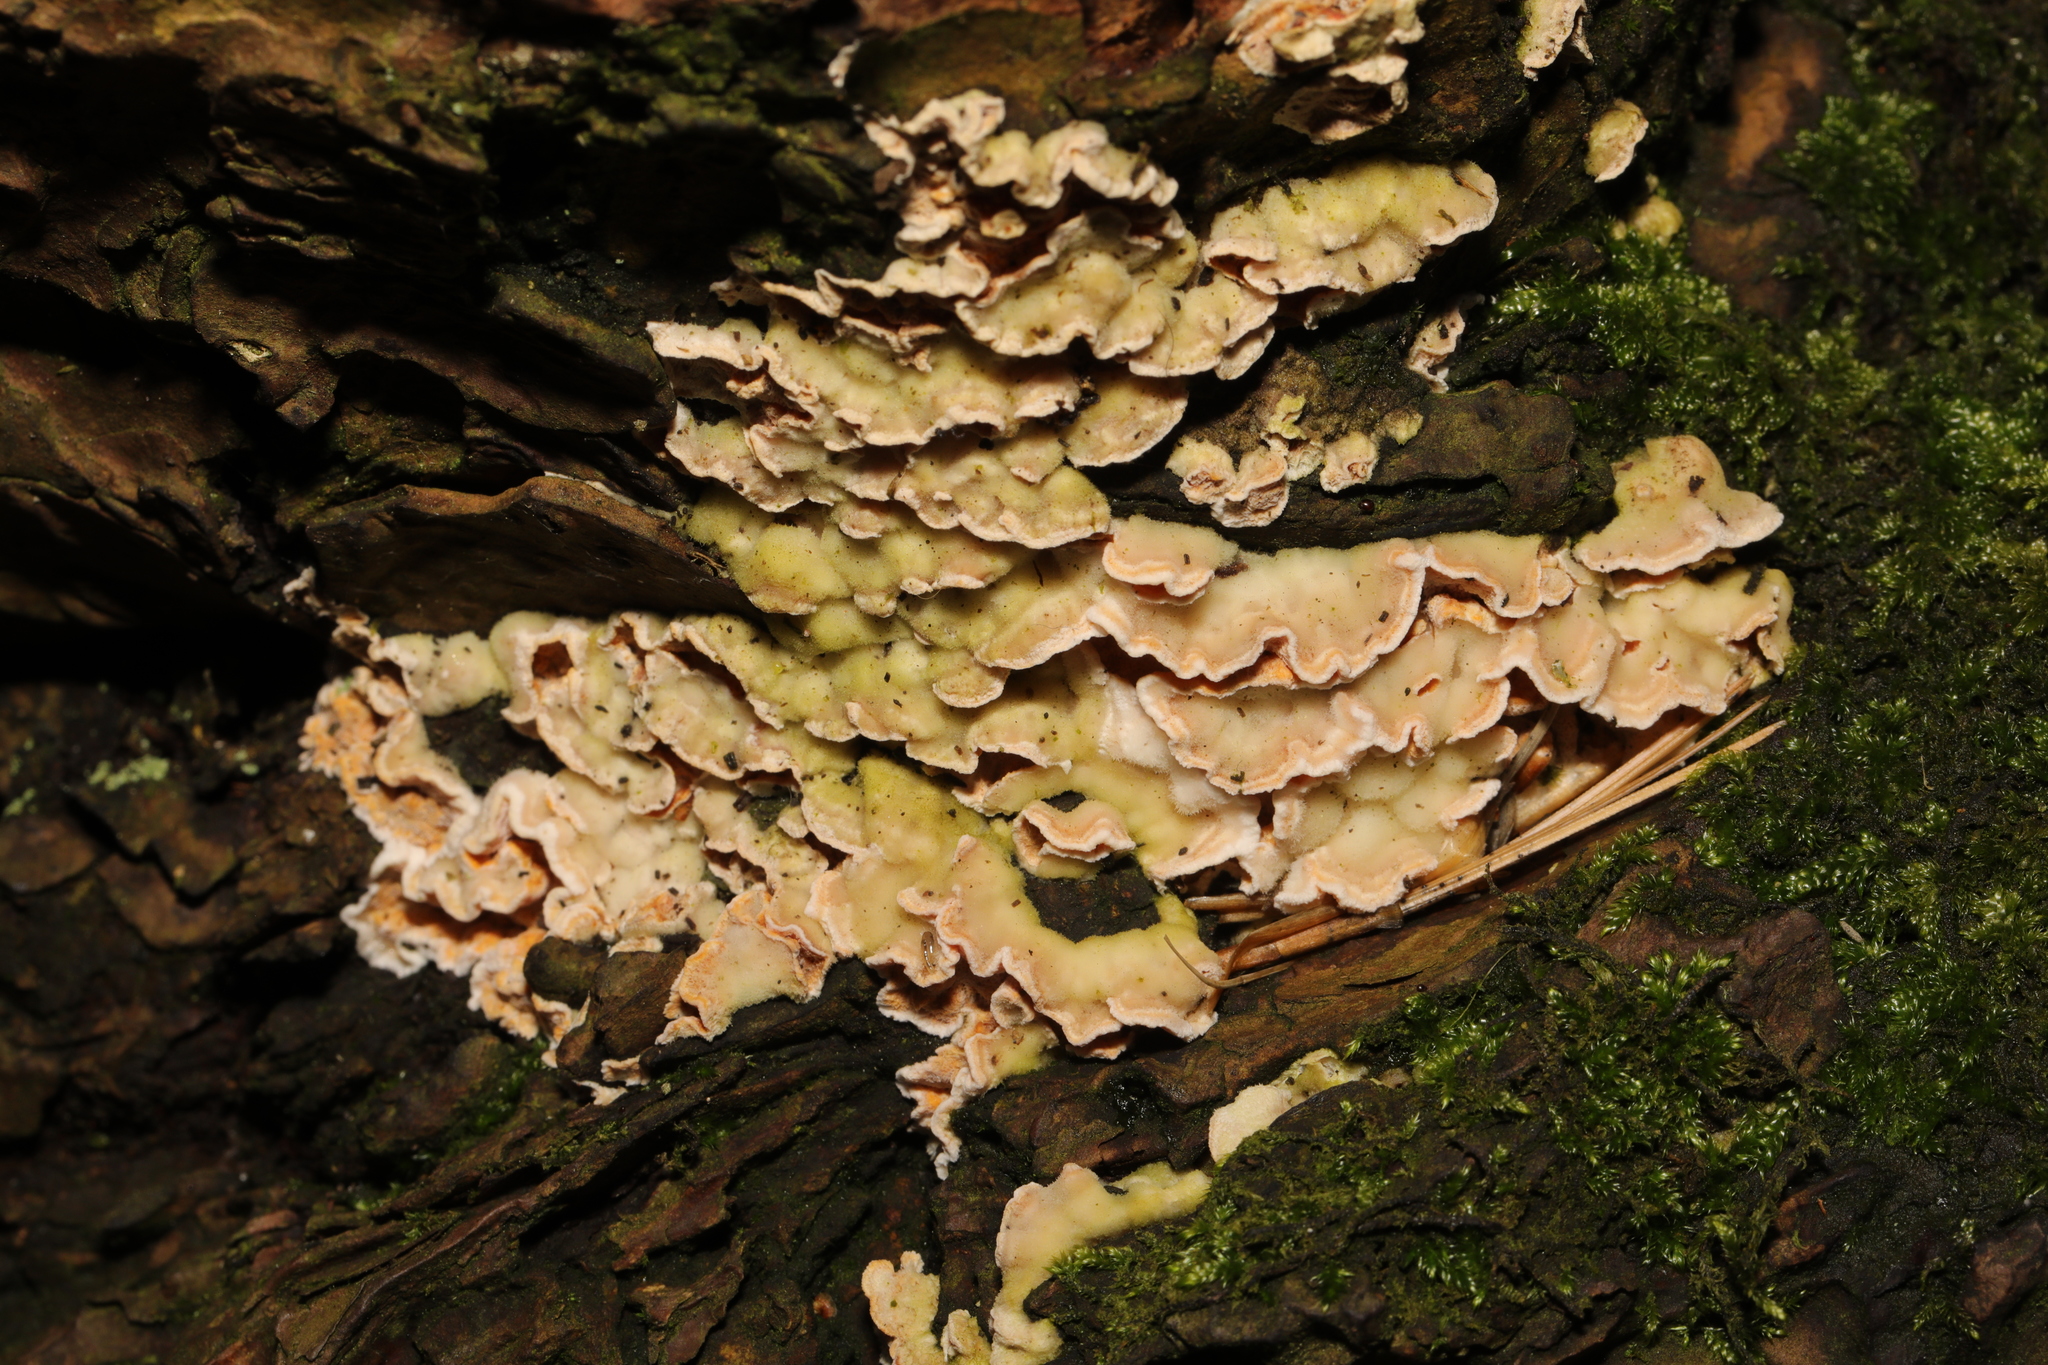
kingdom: Fungi
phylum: Basidiomycota
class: Agaricomycetes
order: Polyporales
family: Meruliaceae
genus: Phlebia
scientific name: Phlebia tremellosa
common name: Jelly rot
